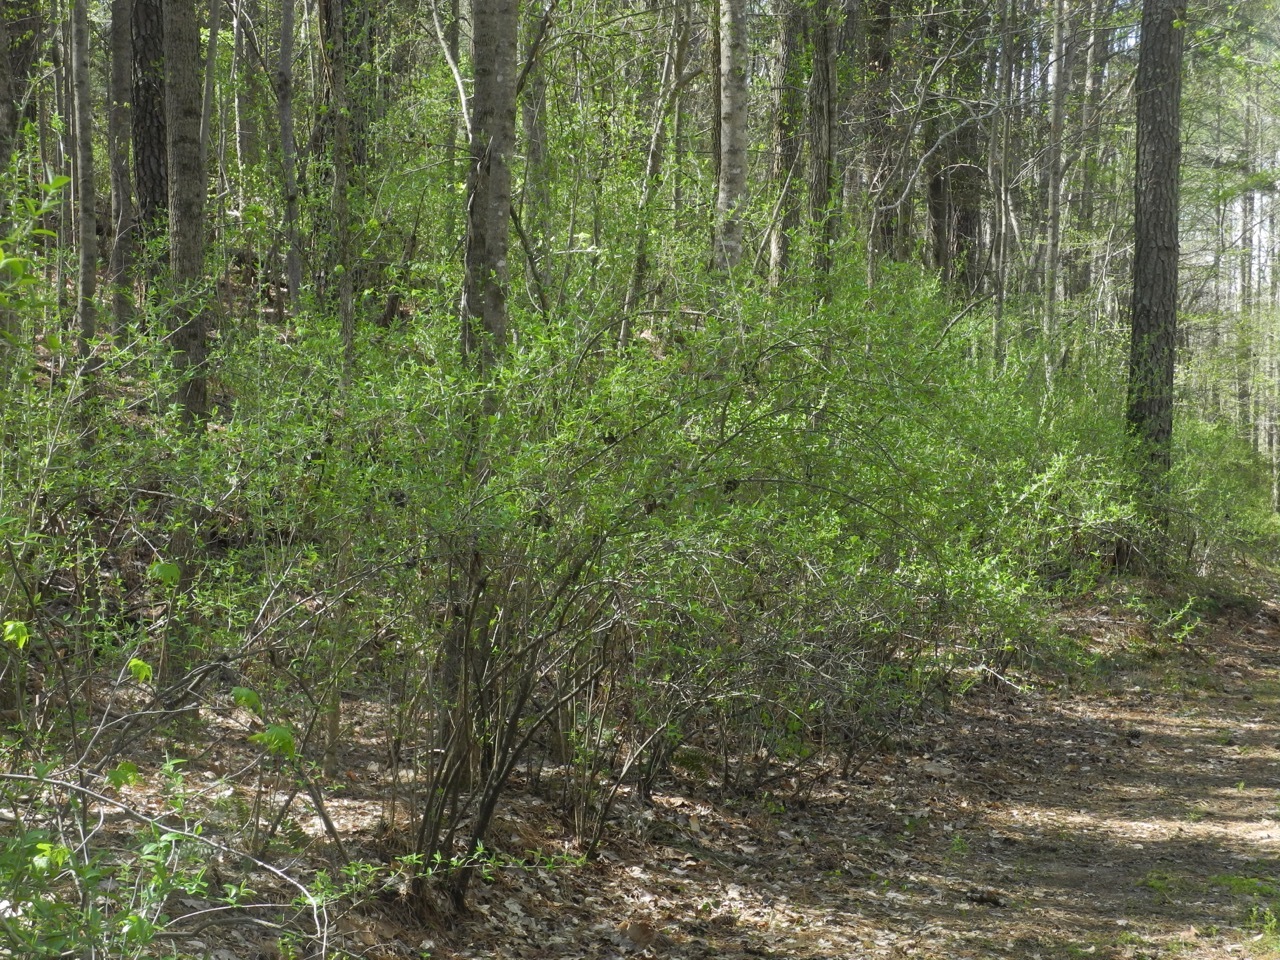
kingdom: Plantae
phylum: Tracheophyta
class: Magnoliopsida
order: Rosales
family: Elaeagnaceae
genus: Elaeagnus
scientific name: Elaeagnus umbellata
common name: Autumn olive
